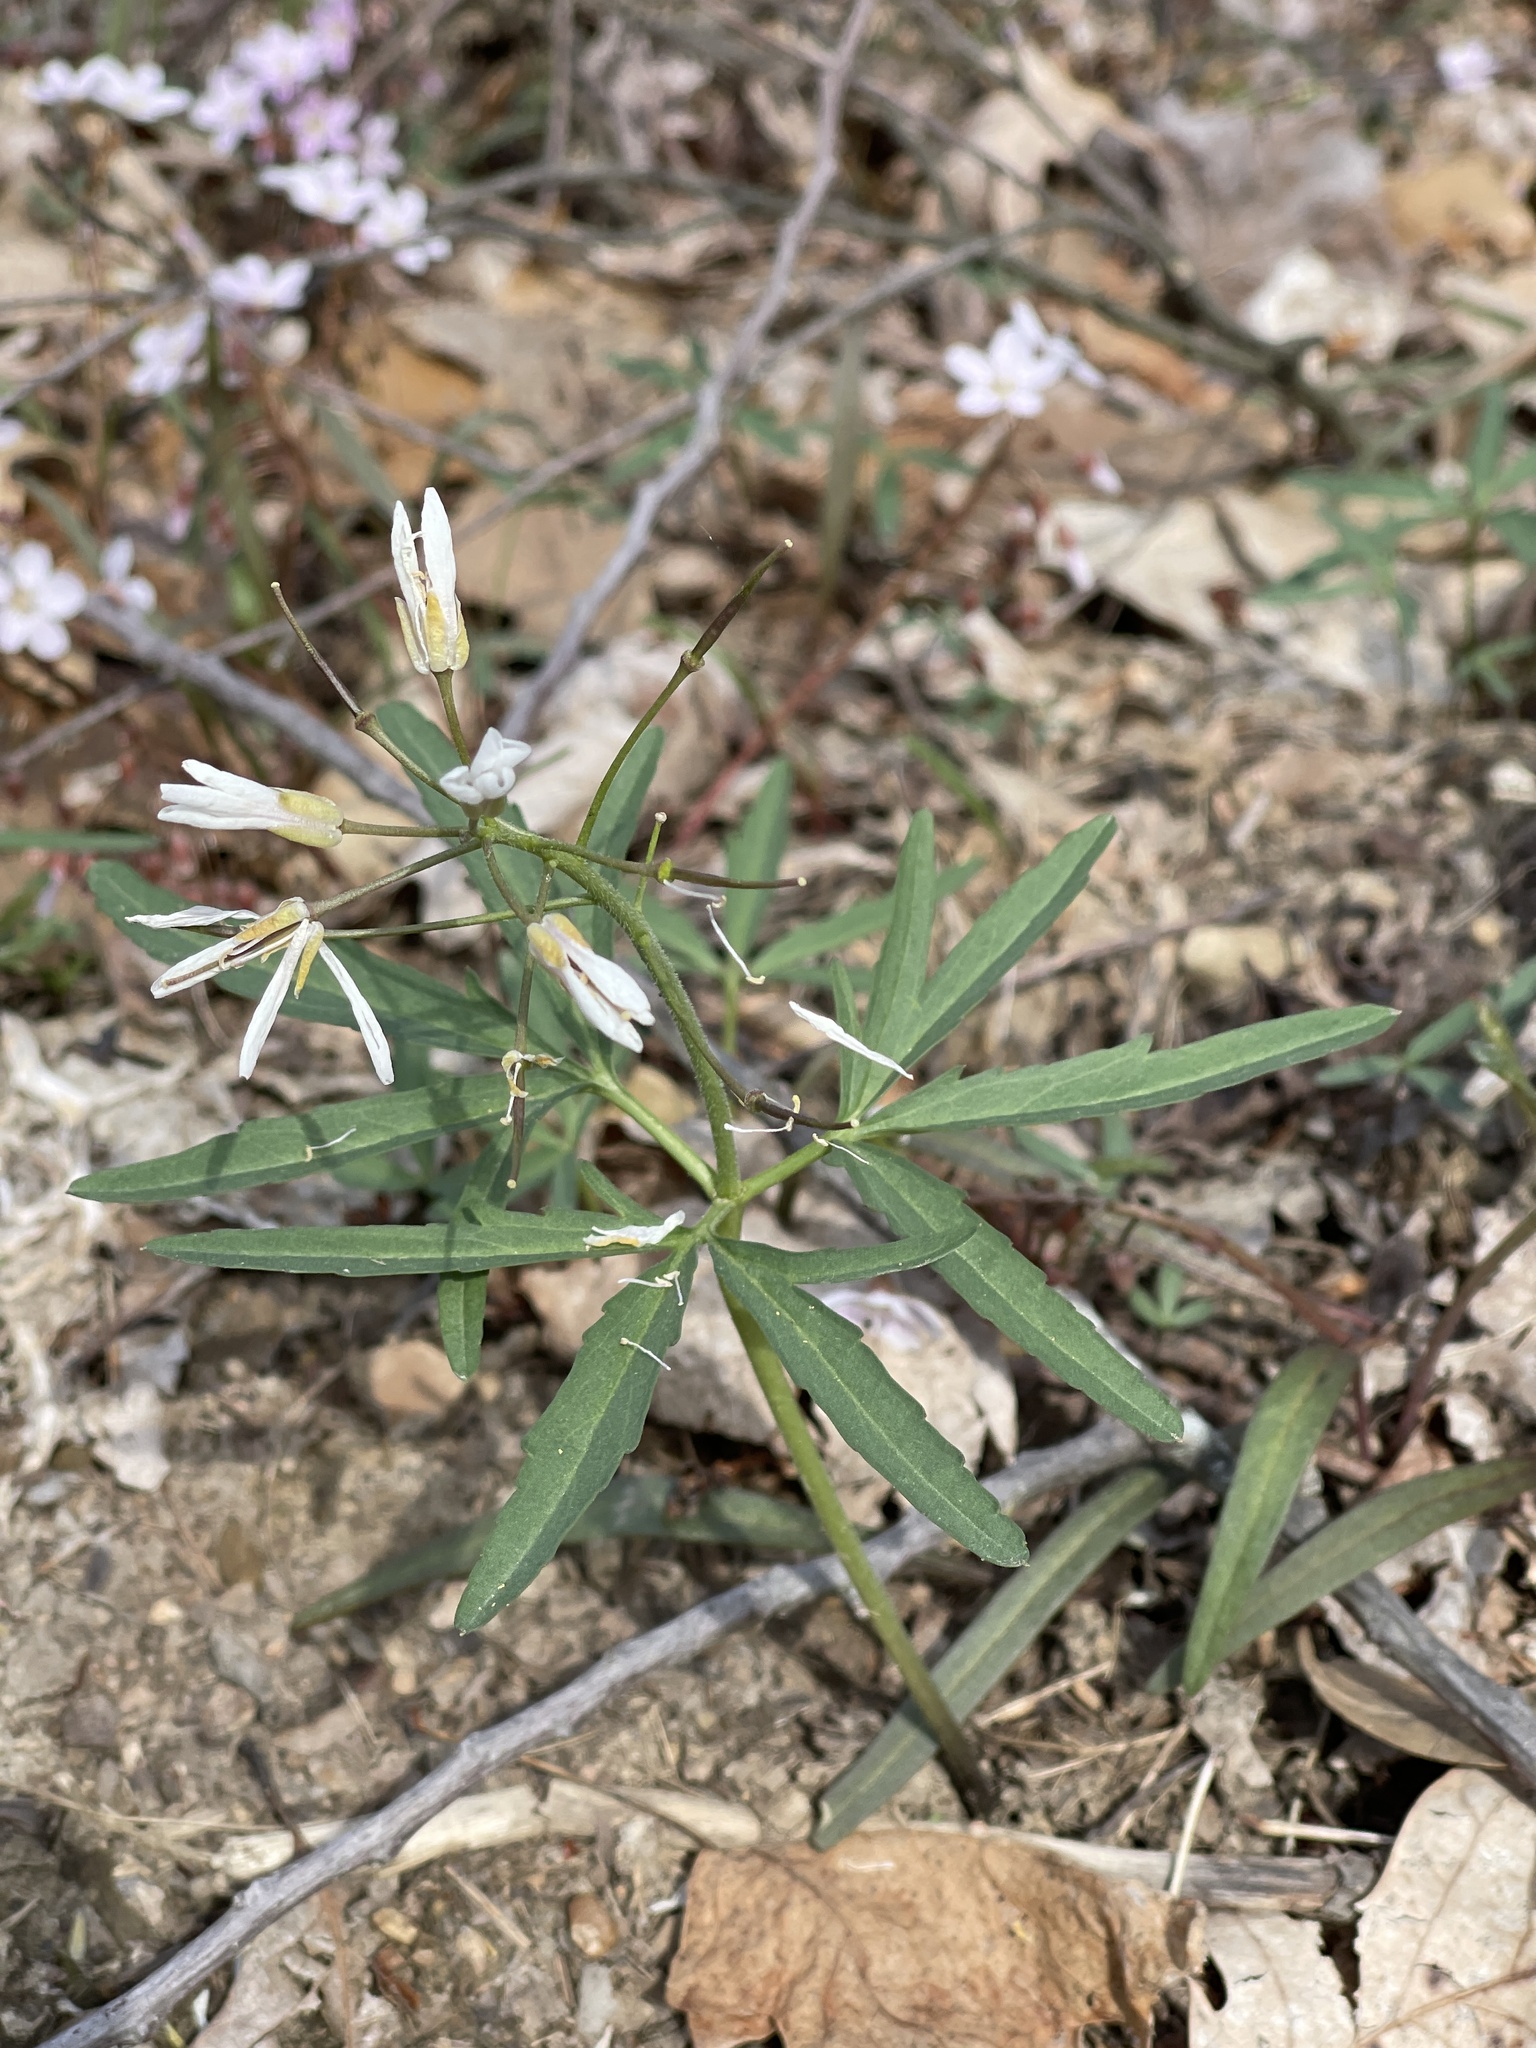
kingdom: Plantae
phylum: Tracheophyta
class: Magnoliopsida
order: Brassicales
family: Brassicaceae
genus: Cardamine
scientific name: Cardamine concatenata
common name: Cut-leaf toothcup
